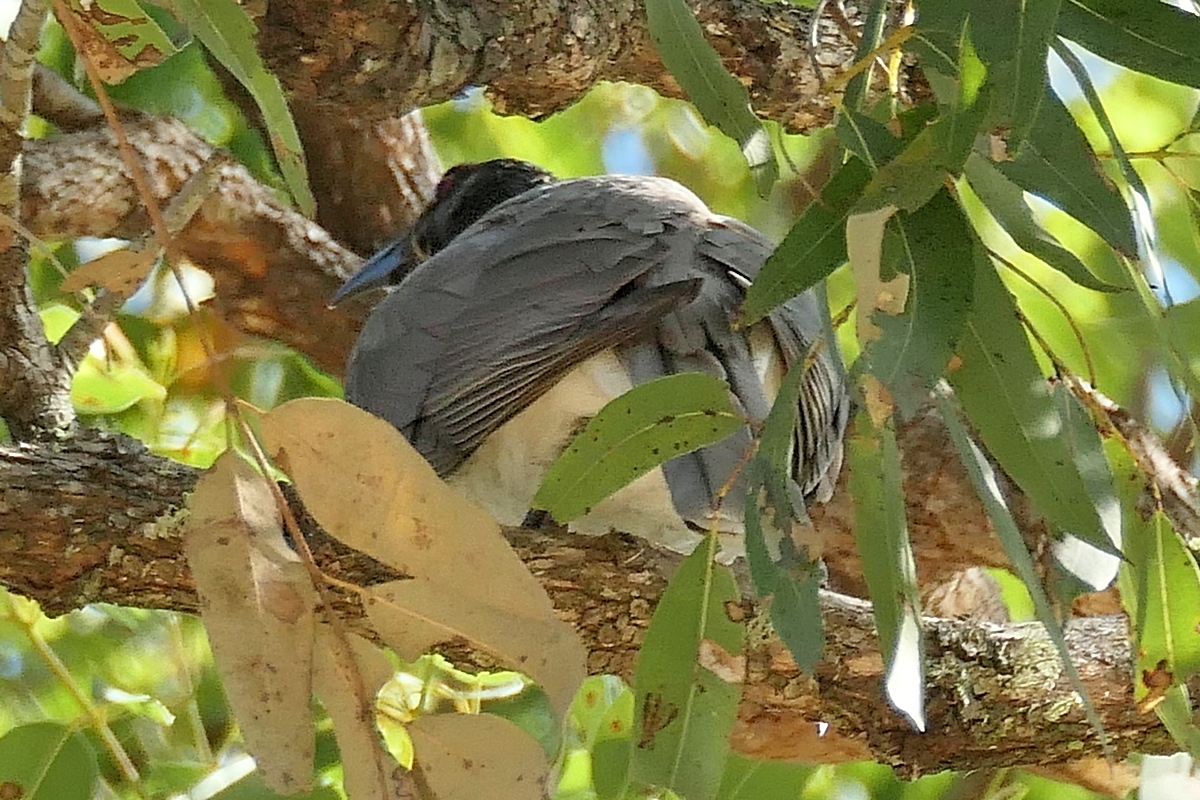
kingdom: Animalia
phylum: Chordata
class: Aves
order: Passeriformes
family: Meliphagidae
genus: Philemon
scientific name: Philemon corniculatus
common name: Noisy friarbird
